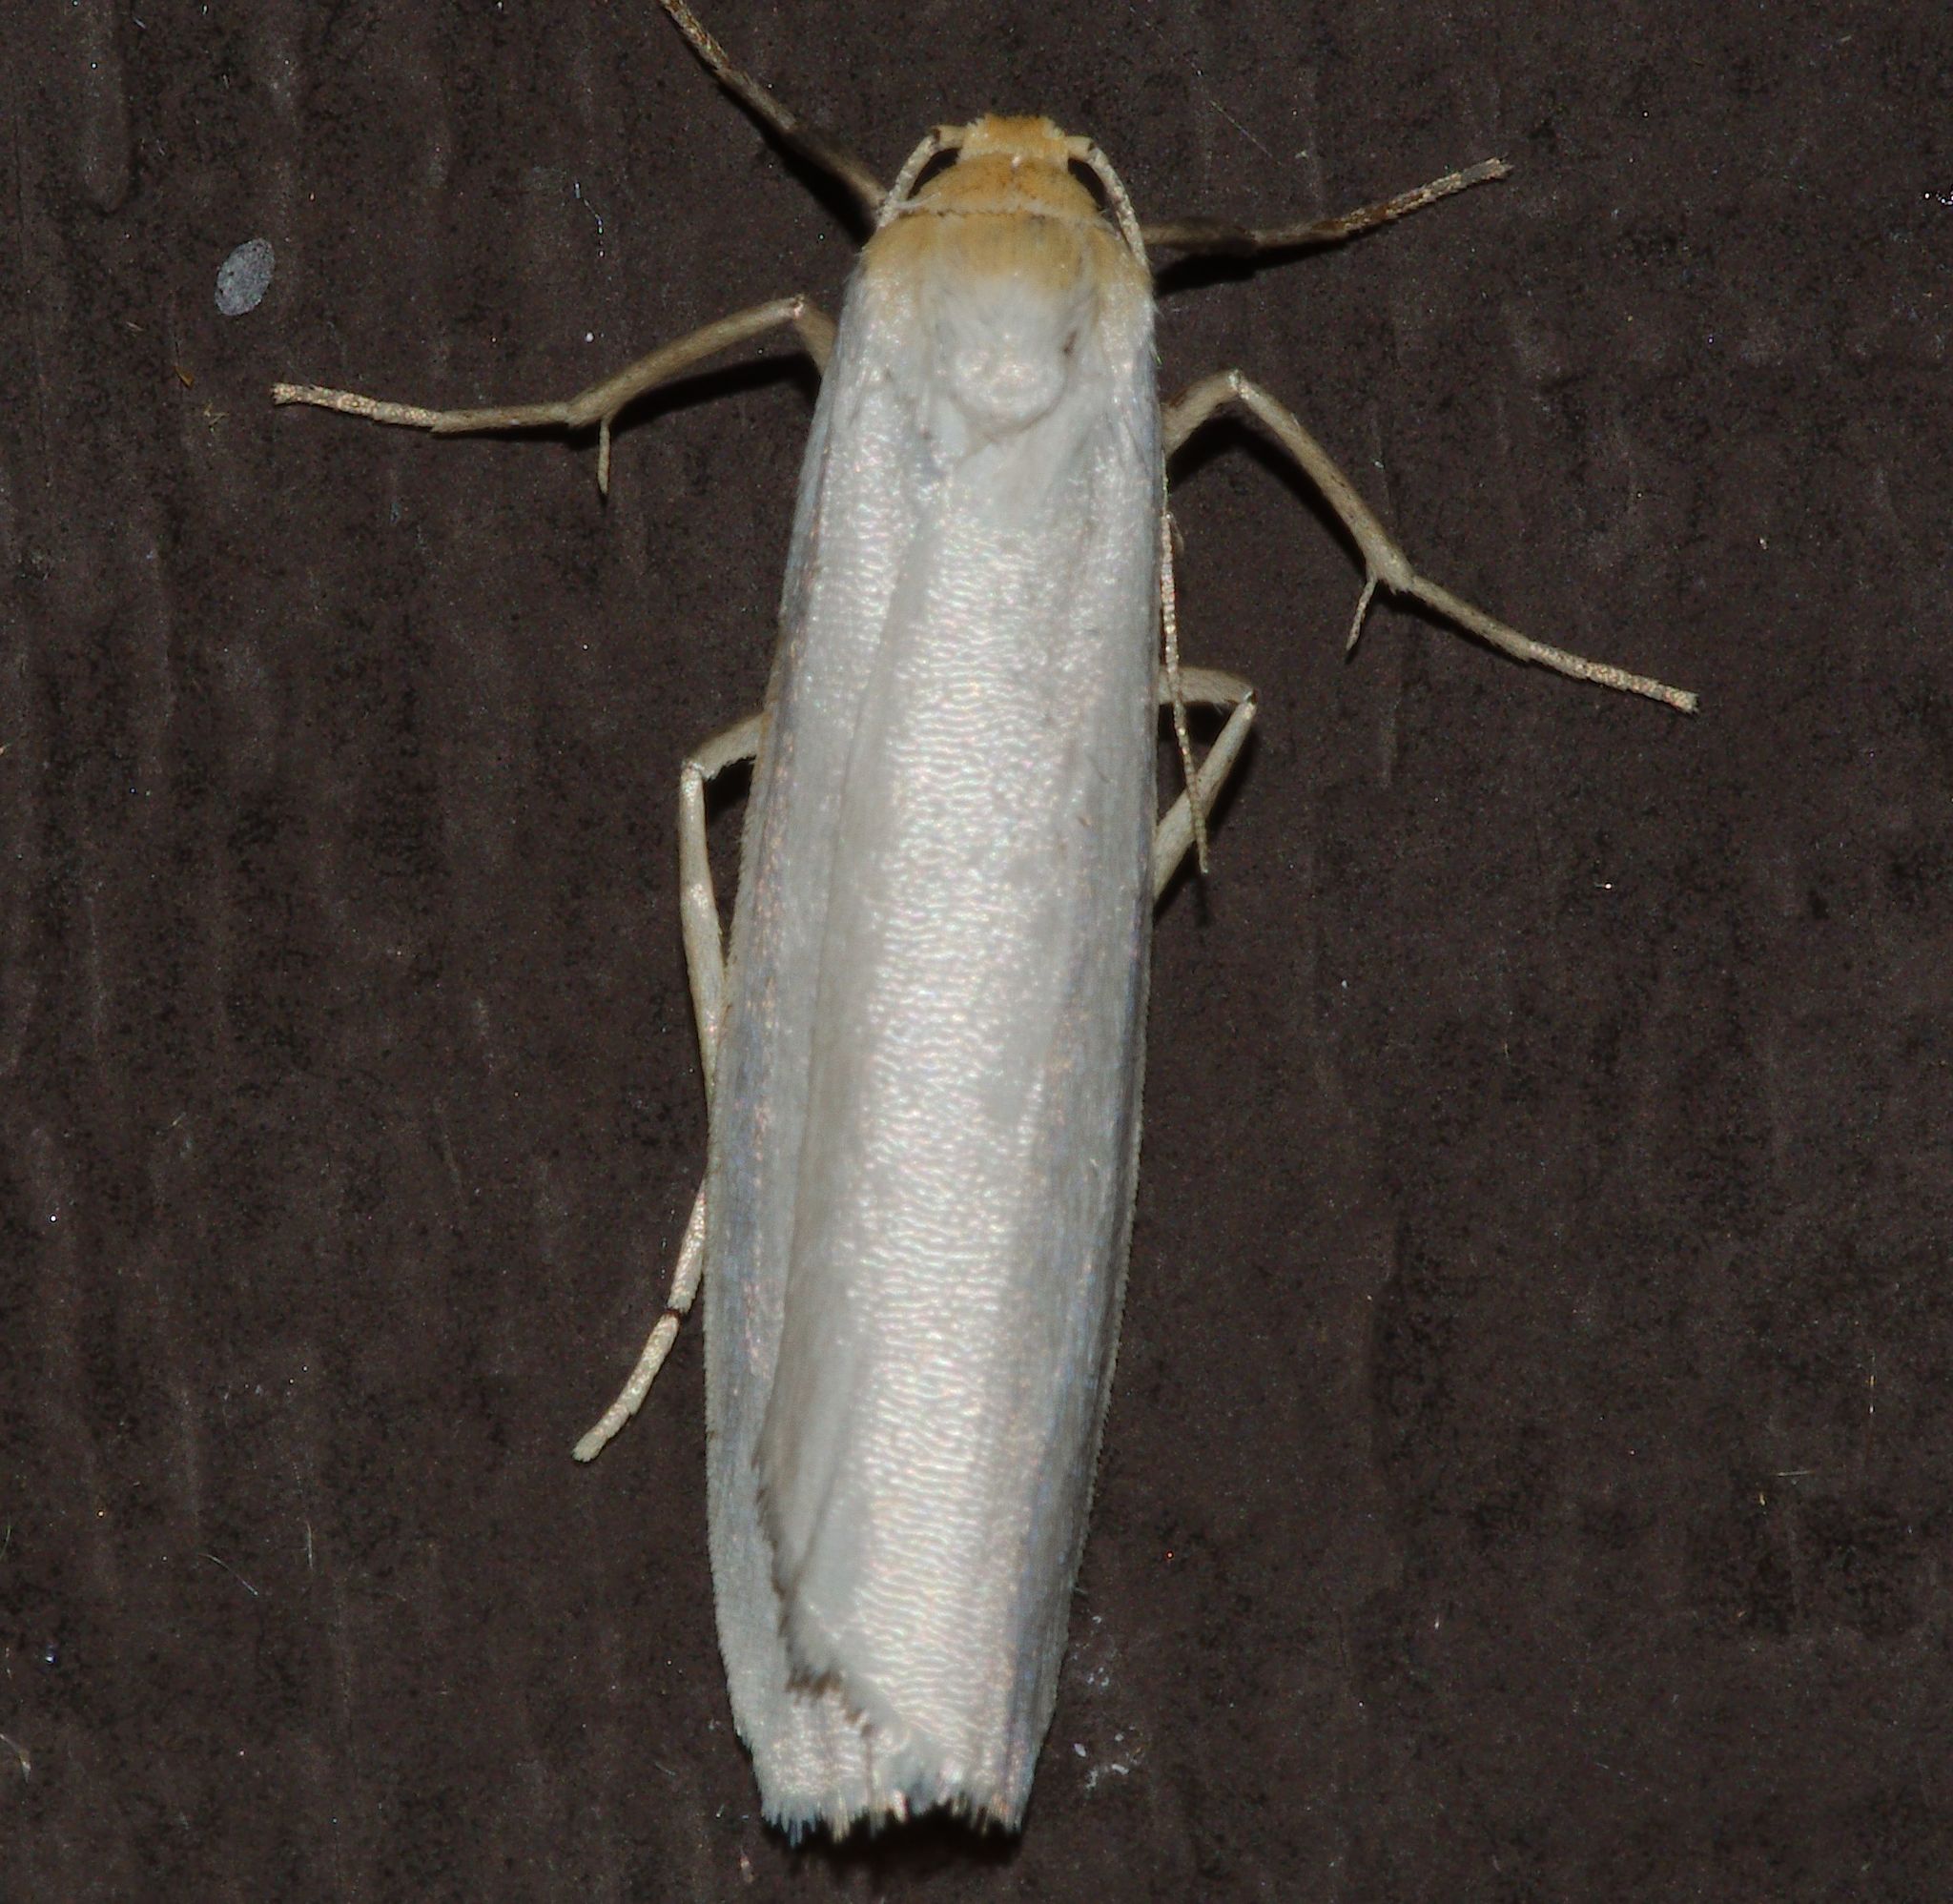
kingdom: Animalia
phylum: Arthropoda
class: Insecta
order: Lepidoptera
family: Erebidae
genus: Crambidia
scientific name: Crambidia xanthocorpa
